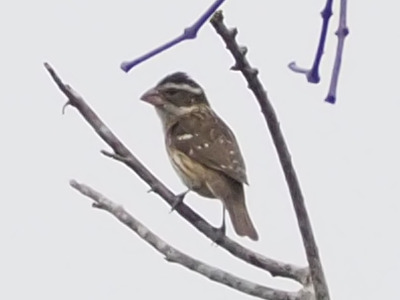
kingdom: Animalia
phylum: Chordata
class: Aves
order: Passeriformes
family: Cardinalidae
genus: Pheucticus
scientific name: Pheucticus ludovicianus
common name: Rose-breasted grosbeak
